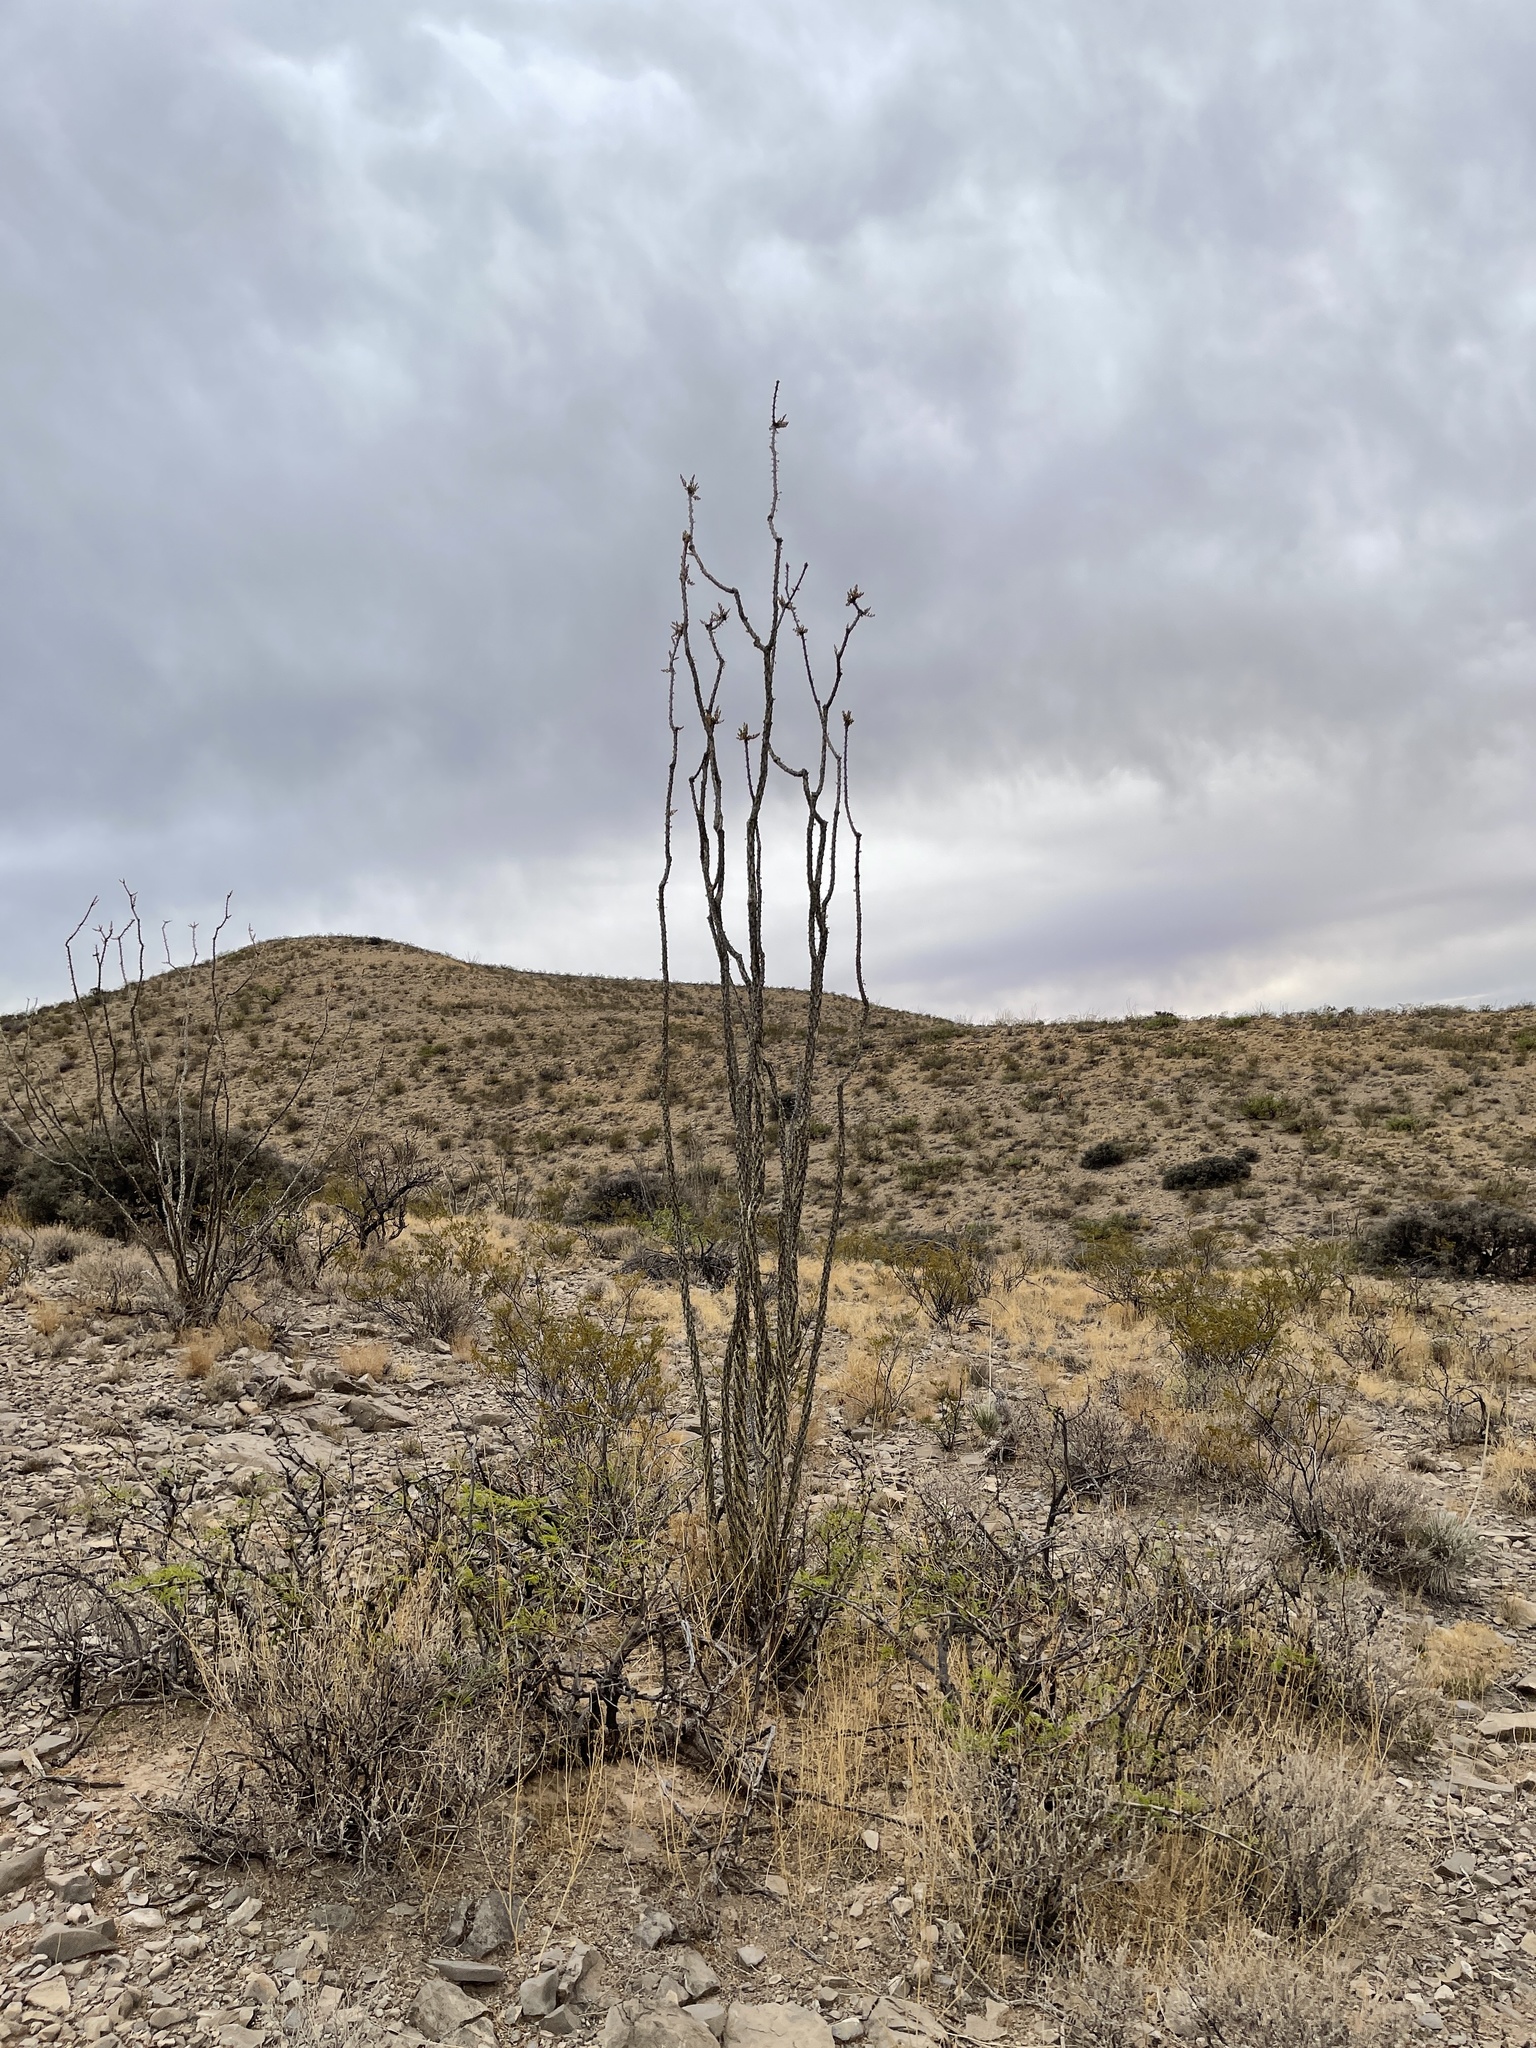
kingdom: Plantae
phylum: Tracheophyta
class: Magnoliopsida
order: Ericales
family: Fouquieriaceae
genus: Fouquieria
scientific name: Fouquieria splendens
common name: Vine-cactus
